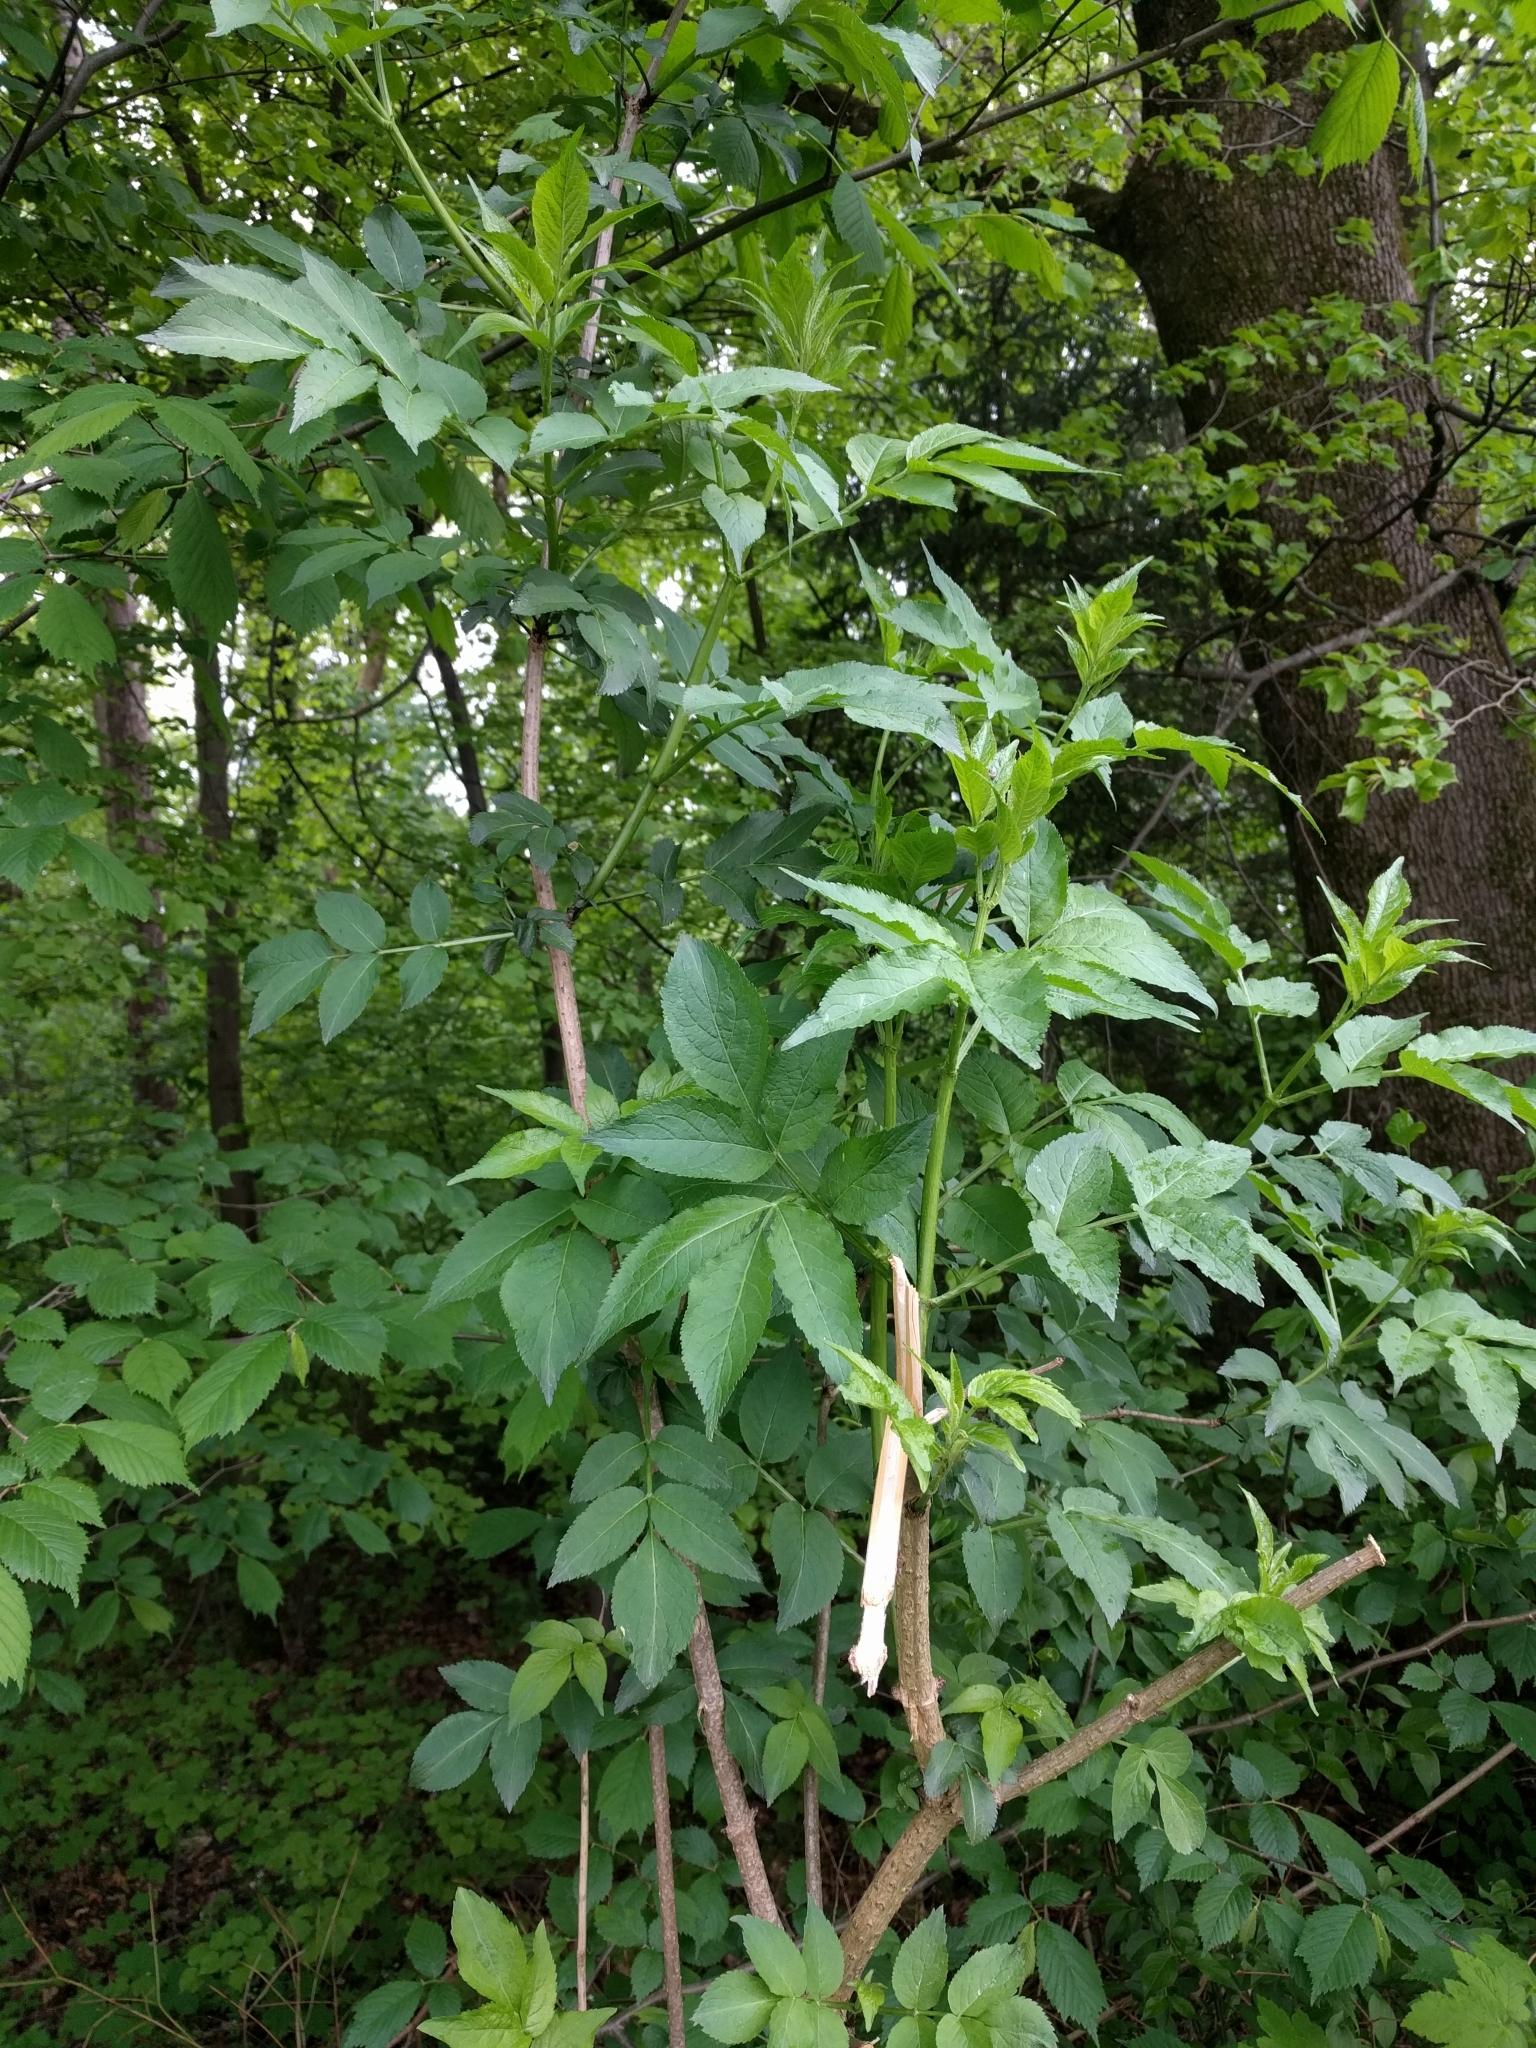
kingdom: Plantae
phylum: Tracheophyta
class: Magnoliopsida
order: Dipsacales
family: Viburnaceae
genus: Sambucus
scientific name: Sambucus nigra
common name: Elder
